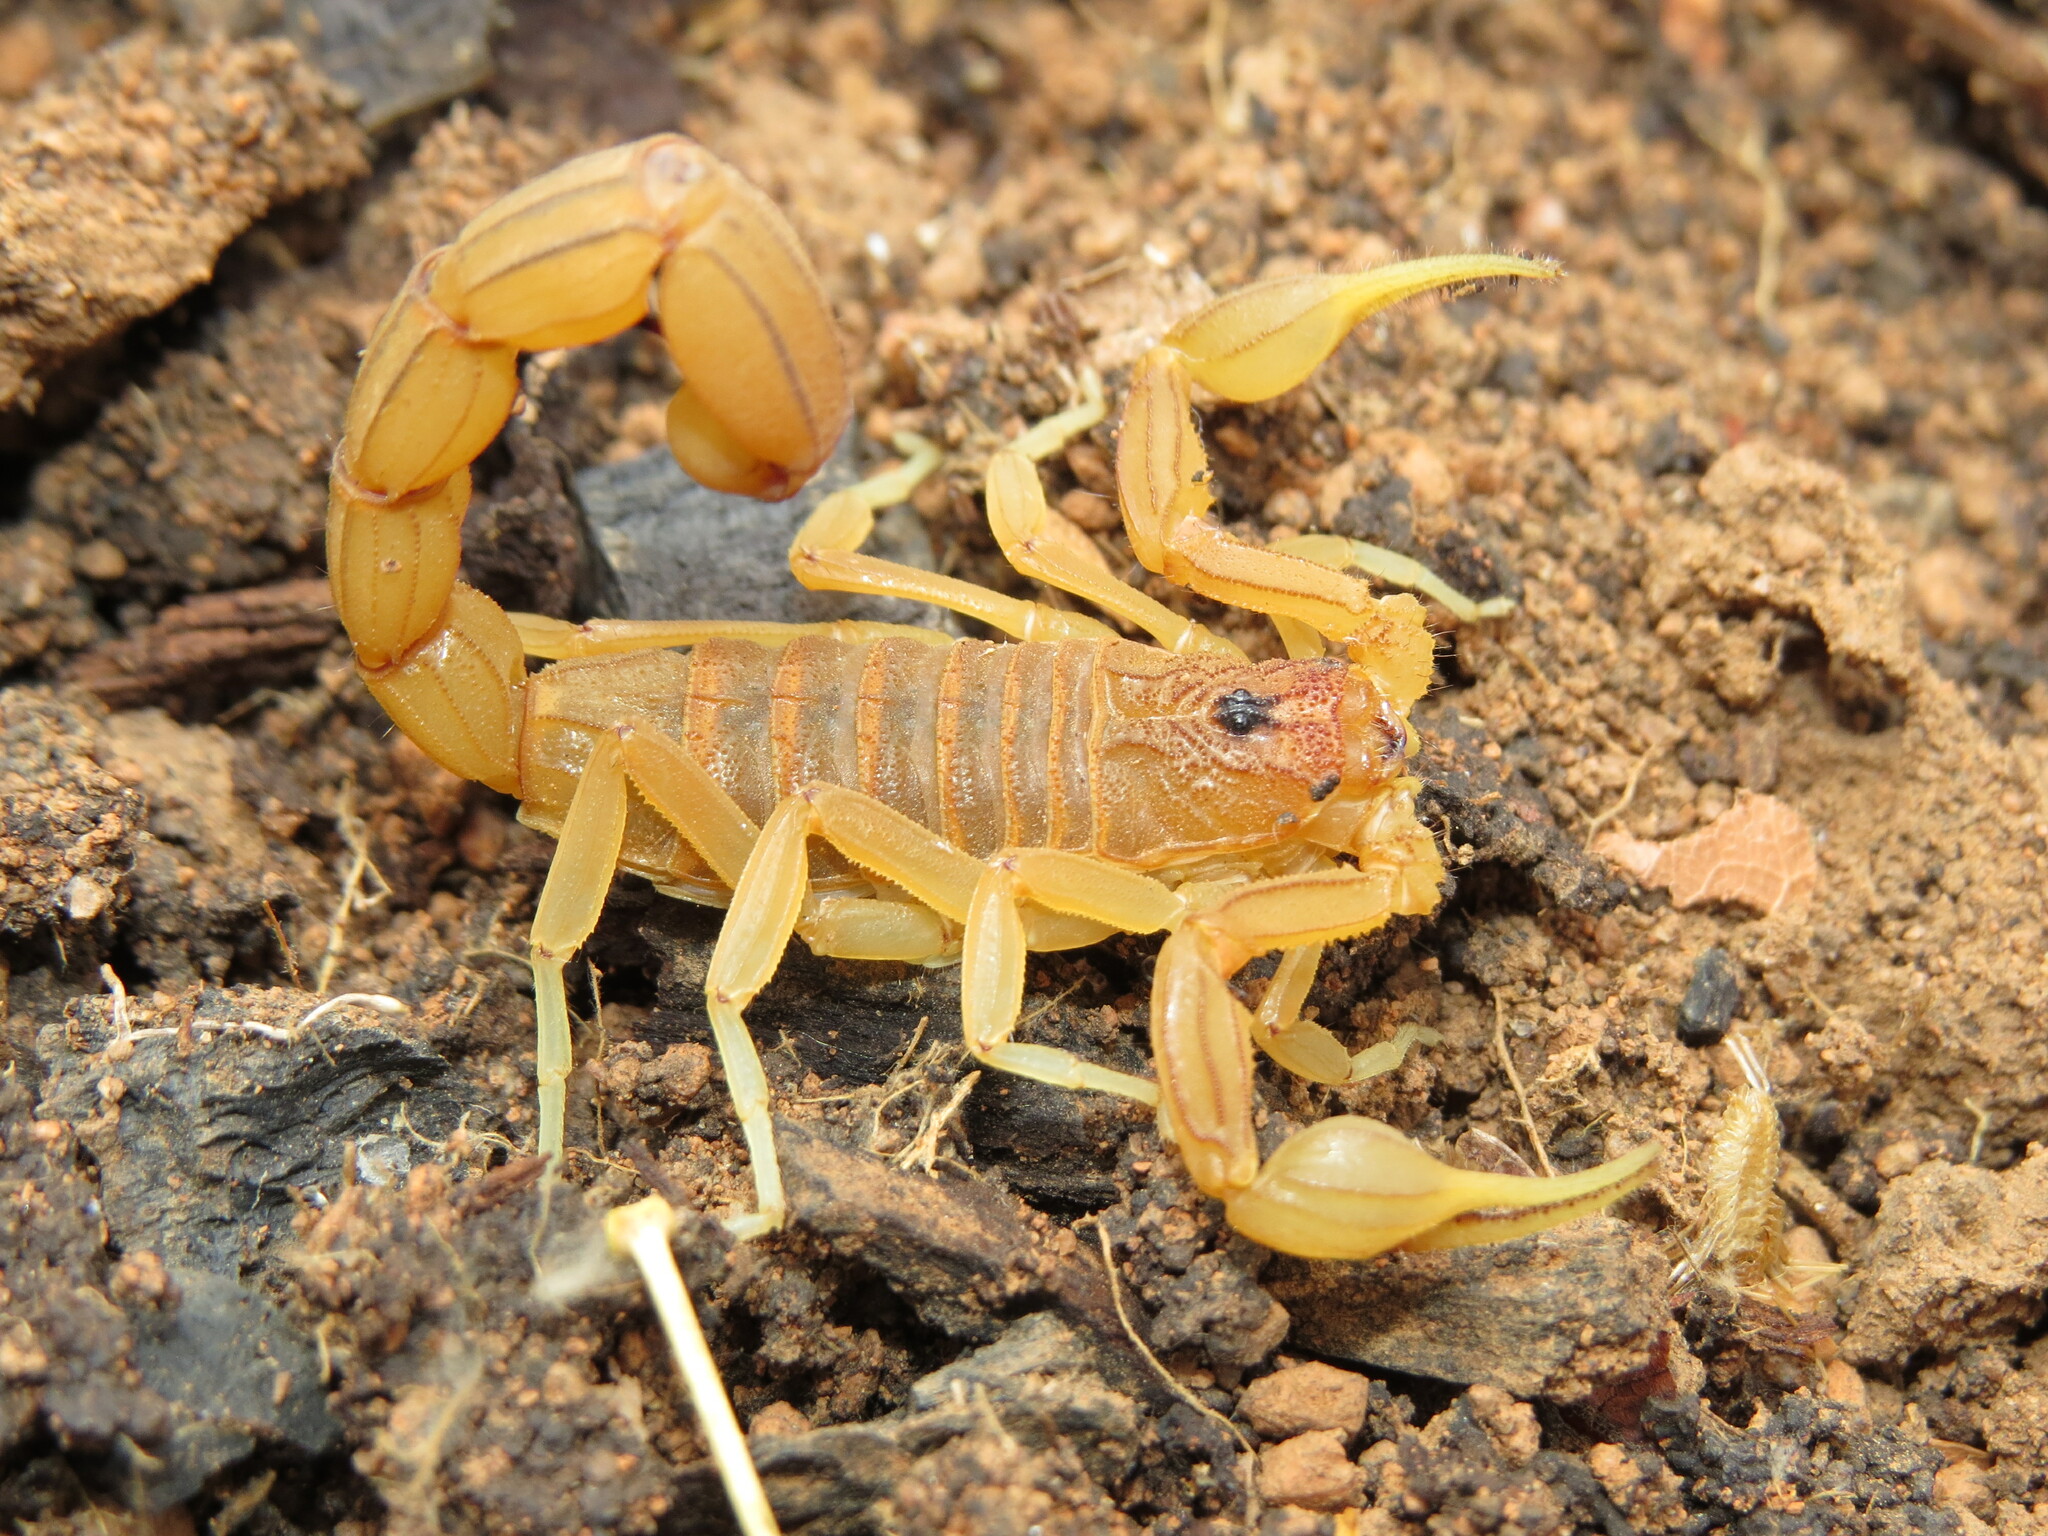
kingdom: Animalia
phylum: Arthropoda
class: Arachnida
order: Scorpiones
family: Buthidae
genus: Jaguajir
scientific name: Jaguajir rochae
